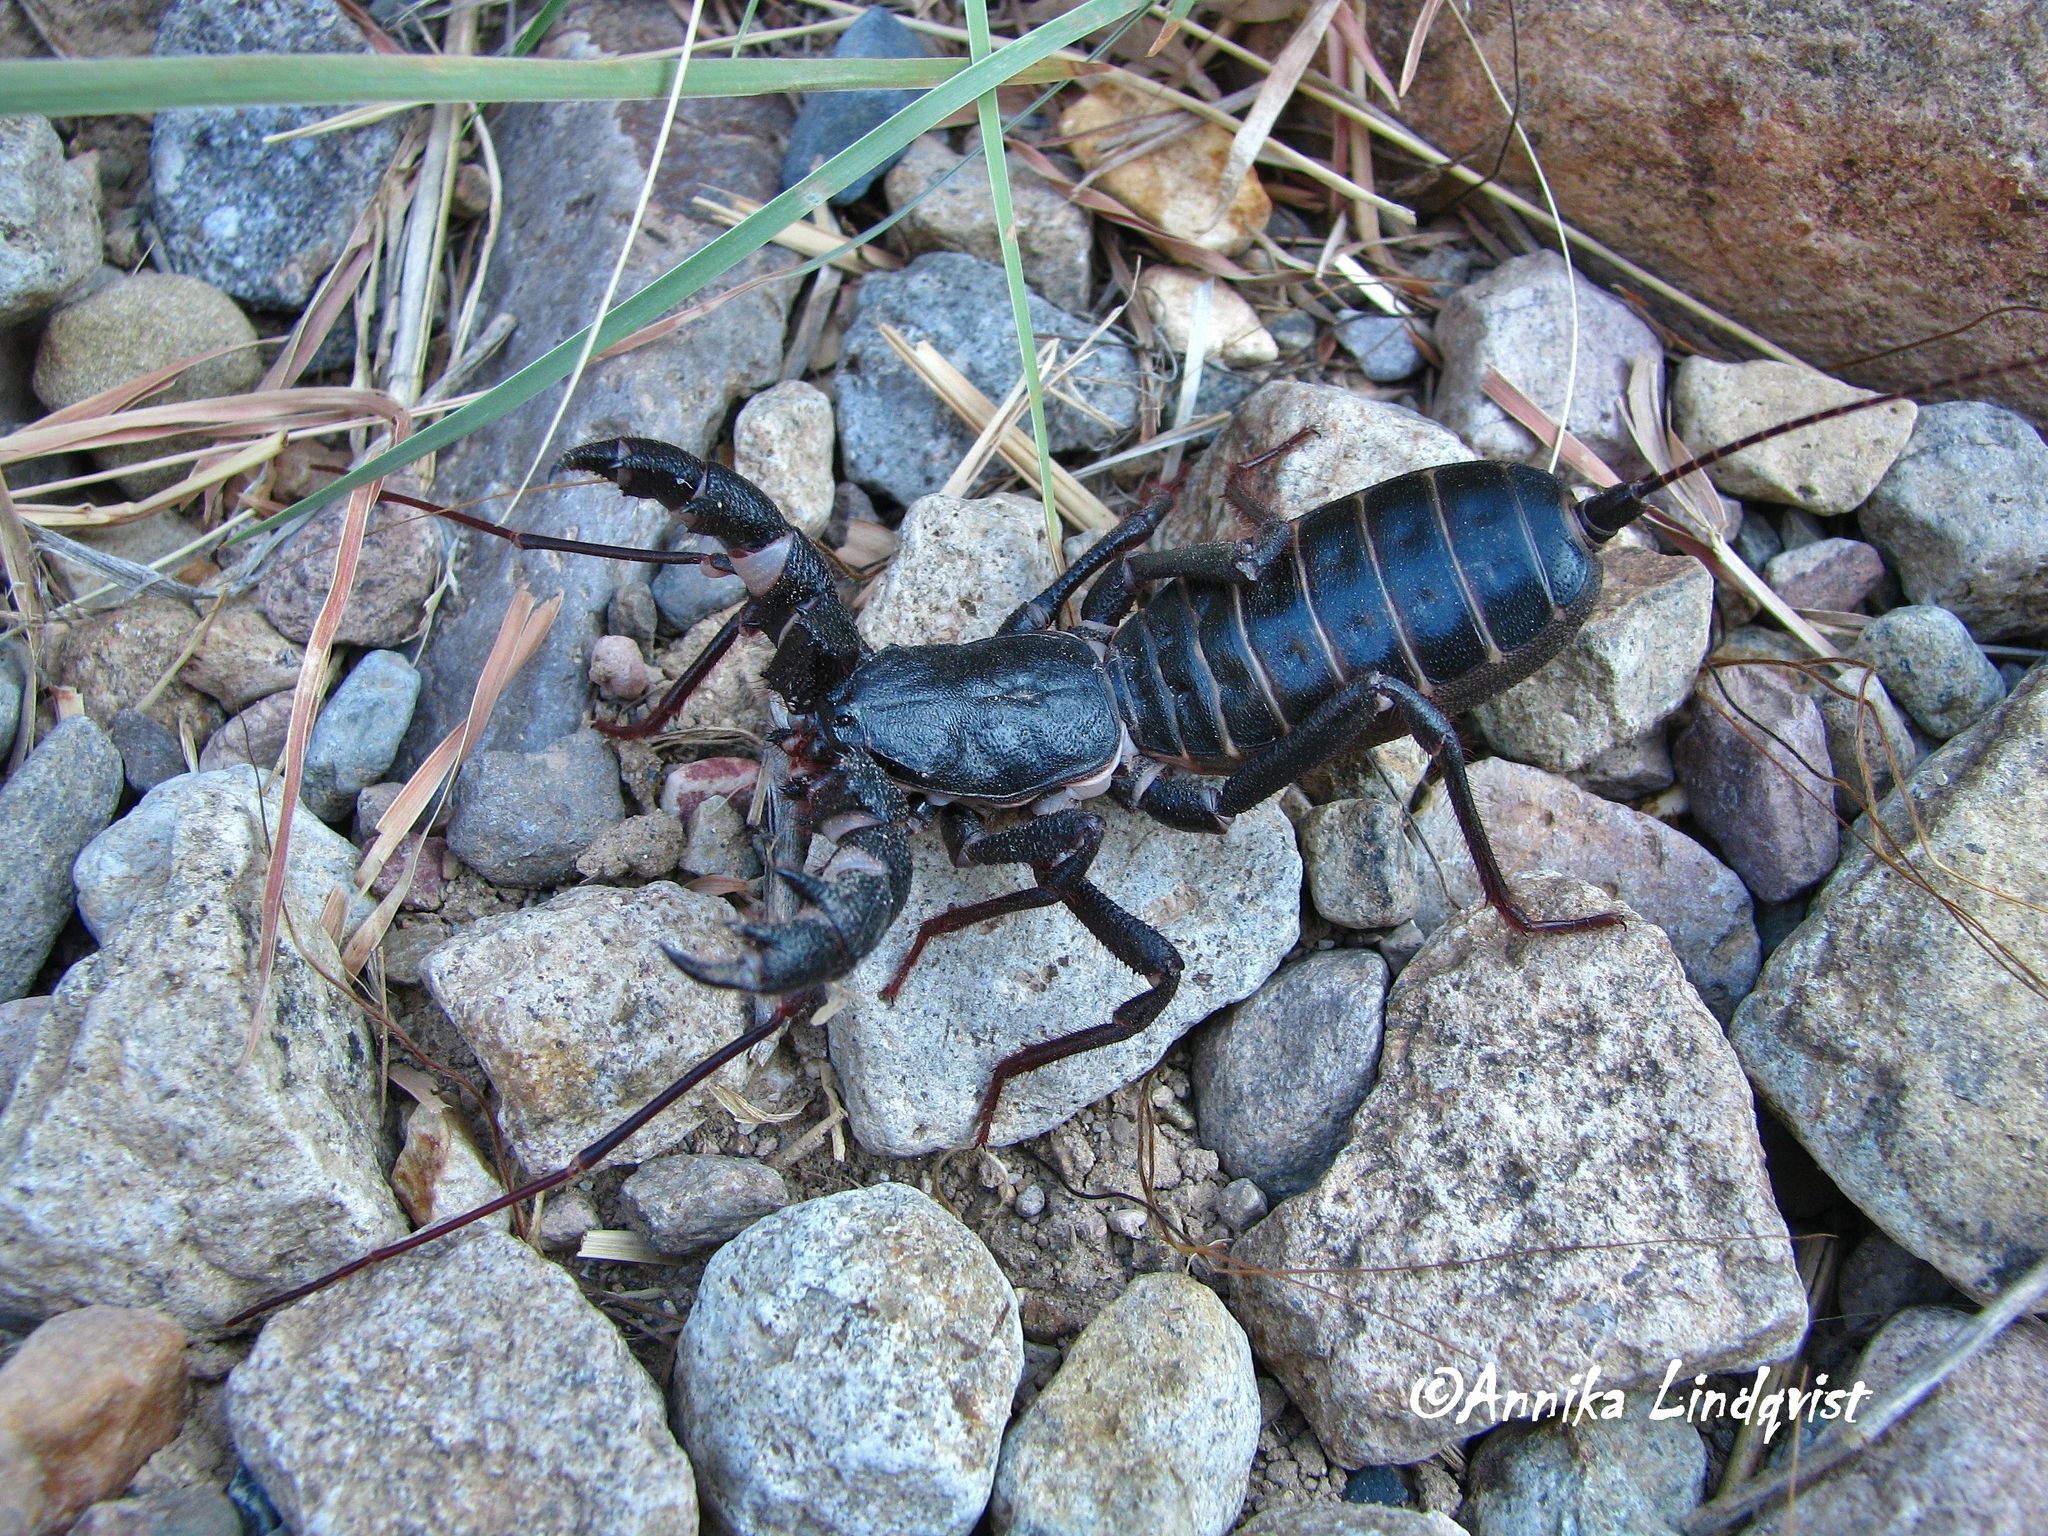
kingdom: Animalia
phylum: Arthropoda
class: Arachnida
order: Uropygi
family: Thelyphonidae
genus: Mastigoproctus
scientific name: Mastigoproctus giganteus
